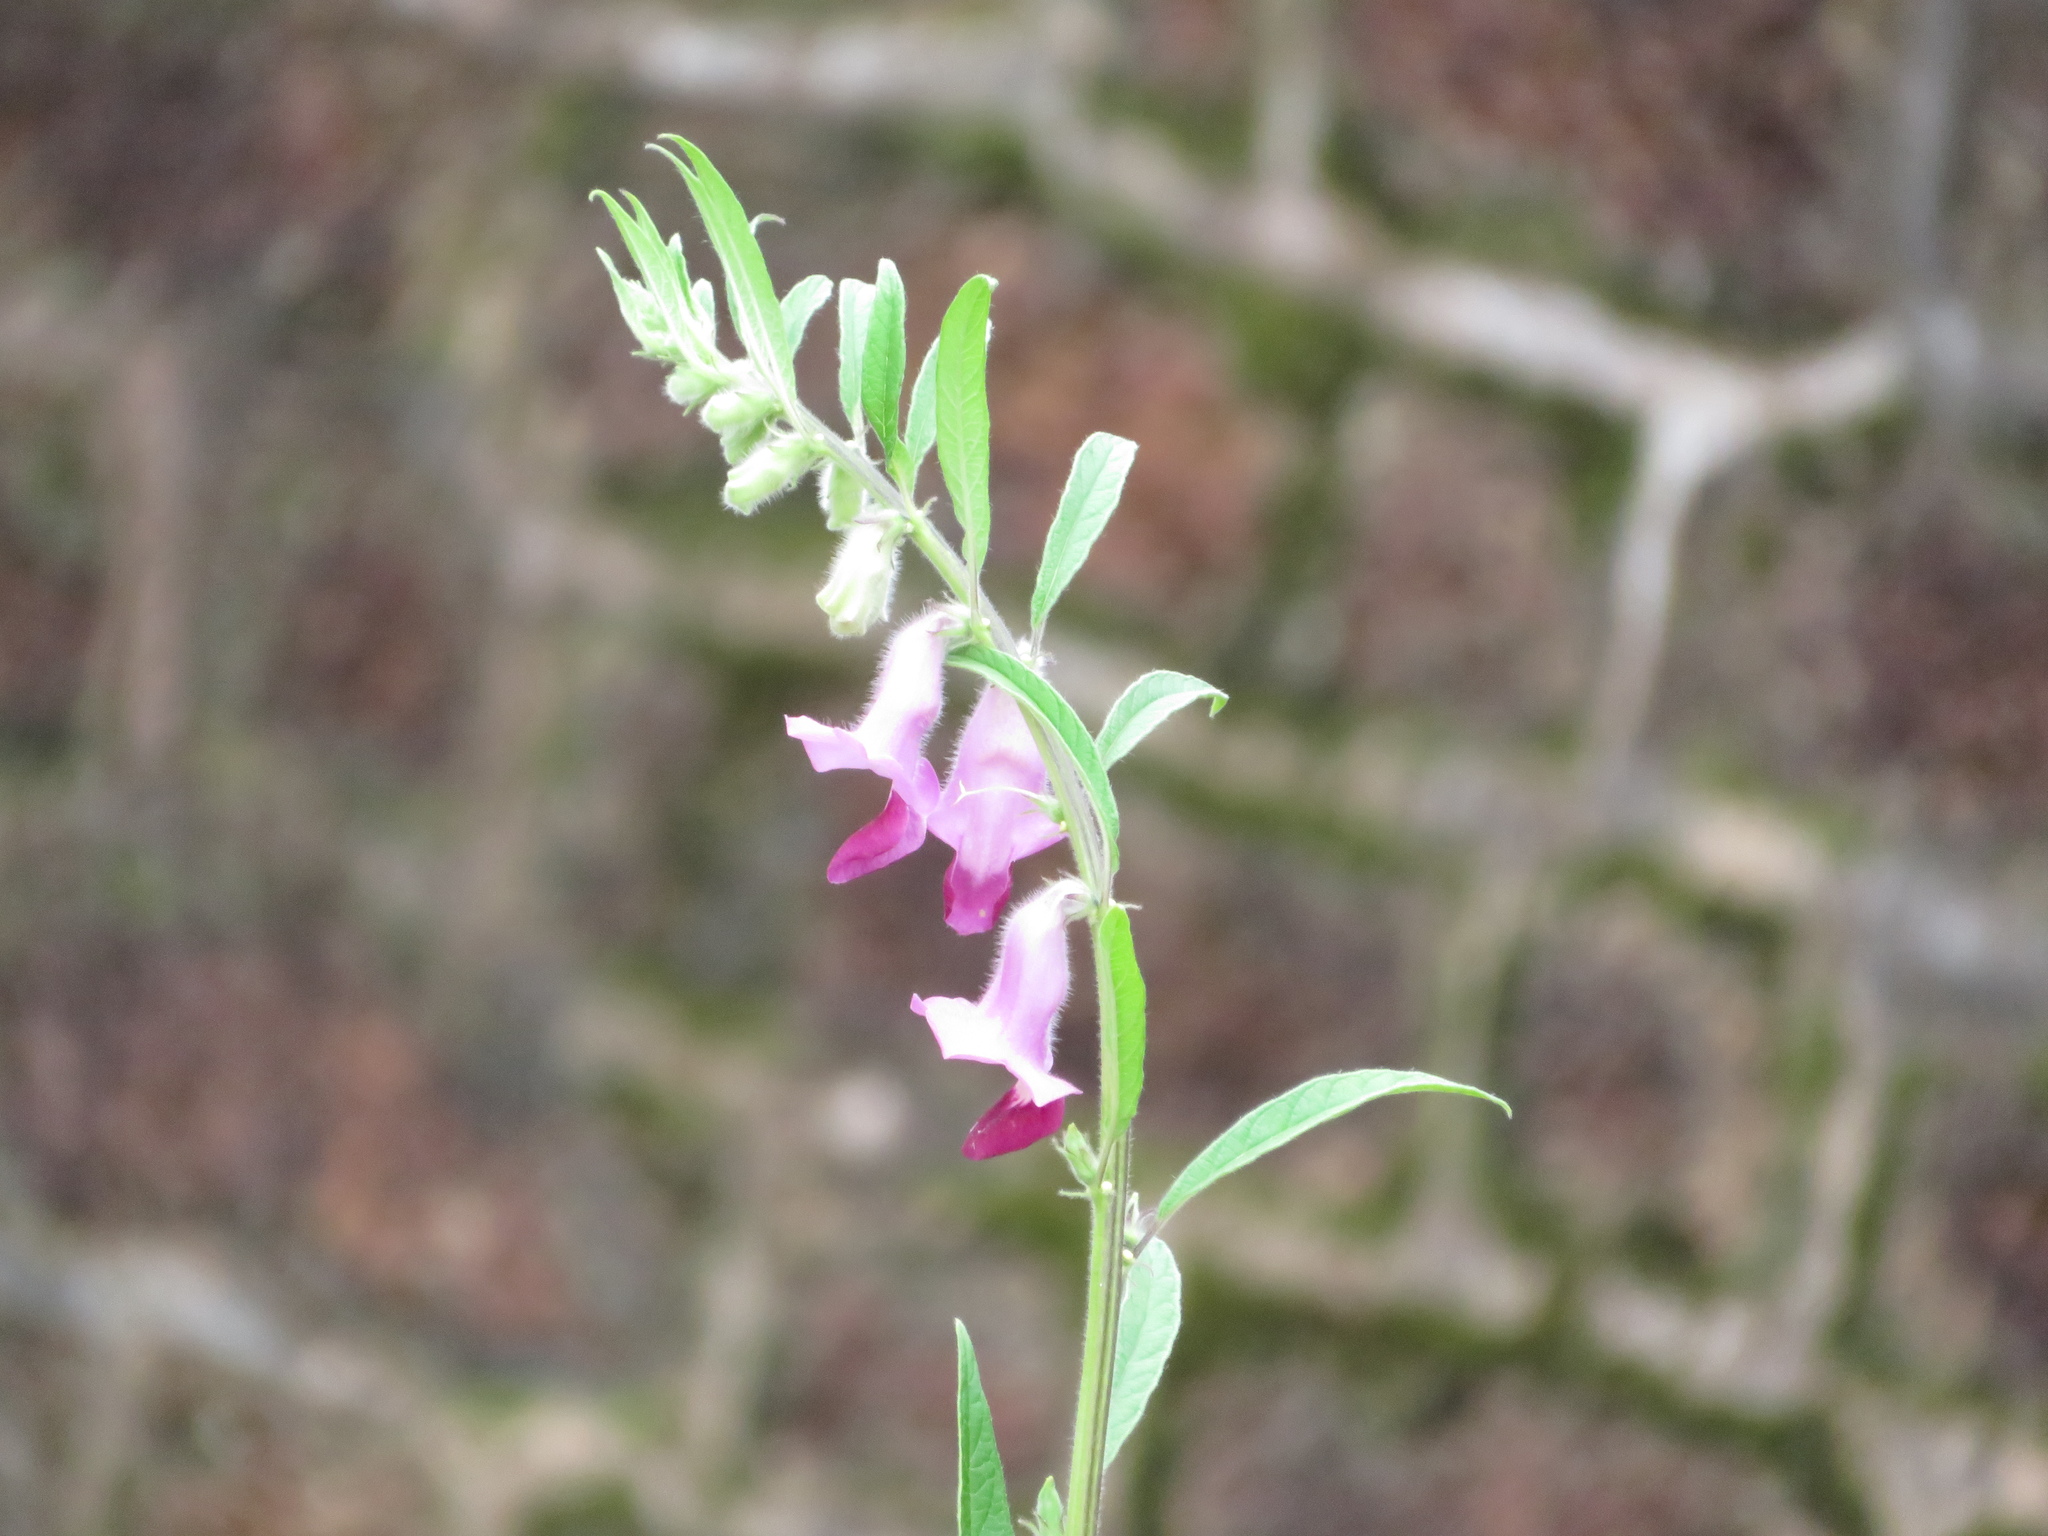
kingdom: Plantae
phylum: Tracheophyta
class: Magnoliopsida
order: Lamiales
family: Pedaliaceae
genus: Sesamum
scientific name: Sesamum indicum
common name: Sesame
